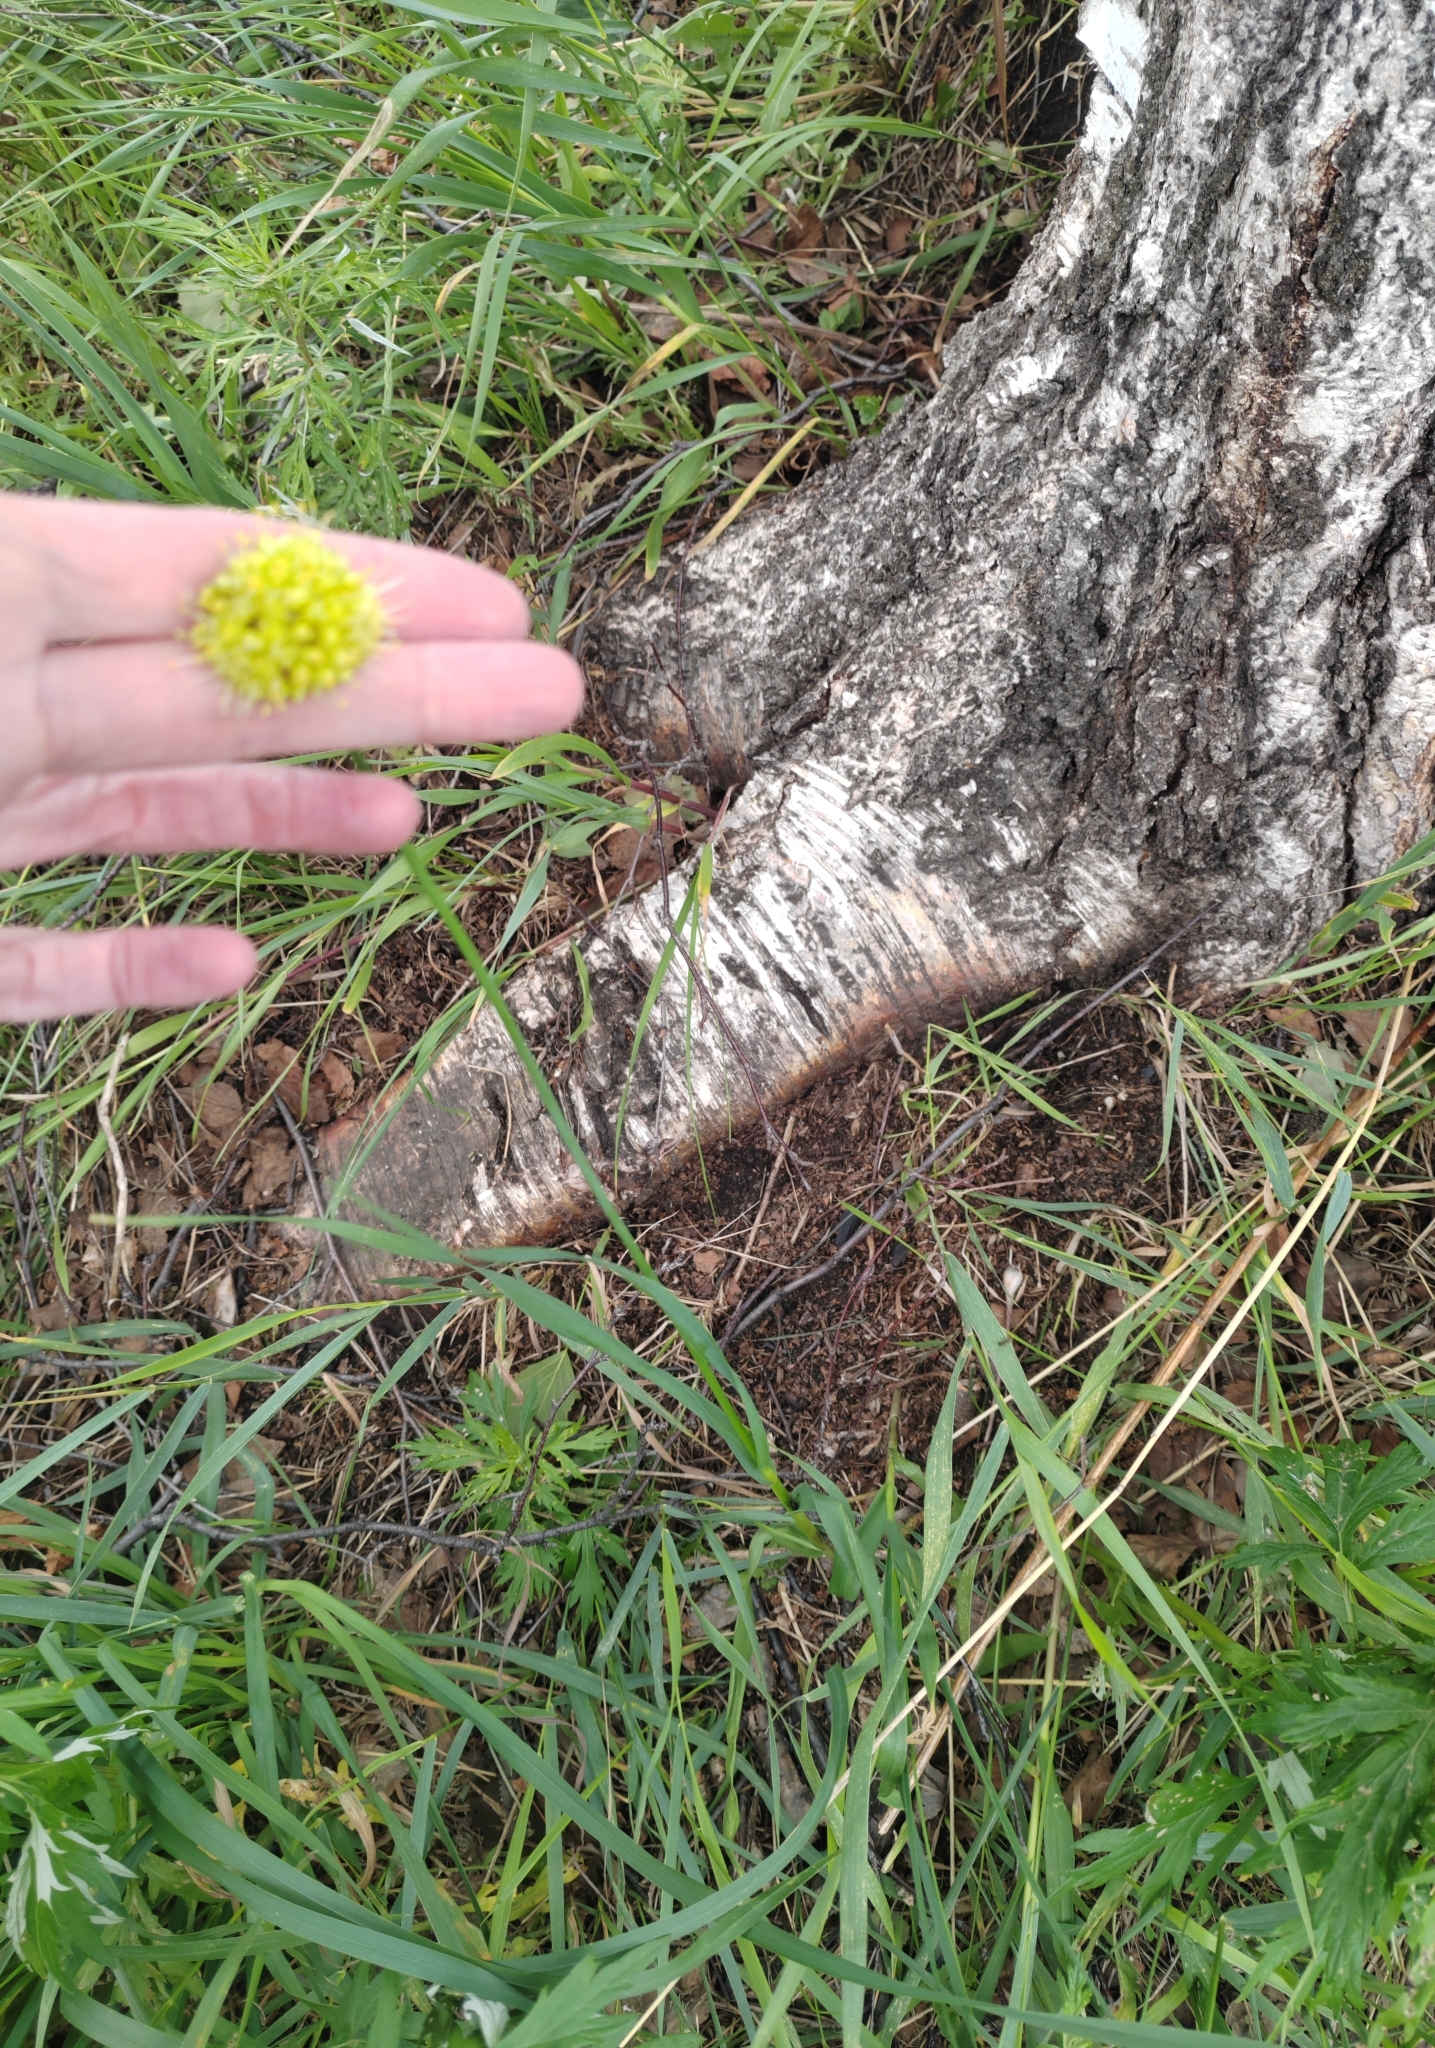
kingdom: Plantae
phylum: Tracheophyta
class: Liliopsida
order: Asparagales
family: Amaryllidaceae
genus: Allium
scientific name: Allium obliquum
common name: Oblique onion
